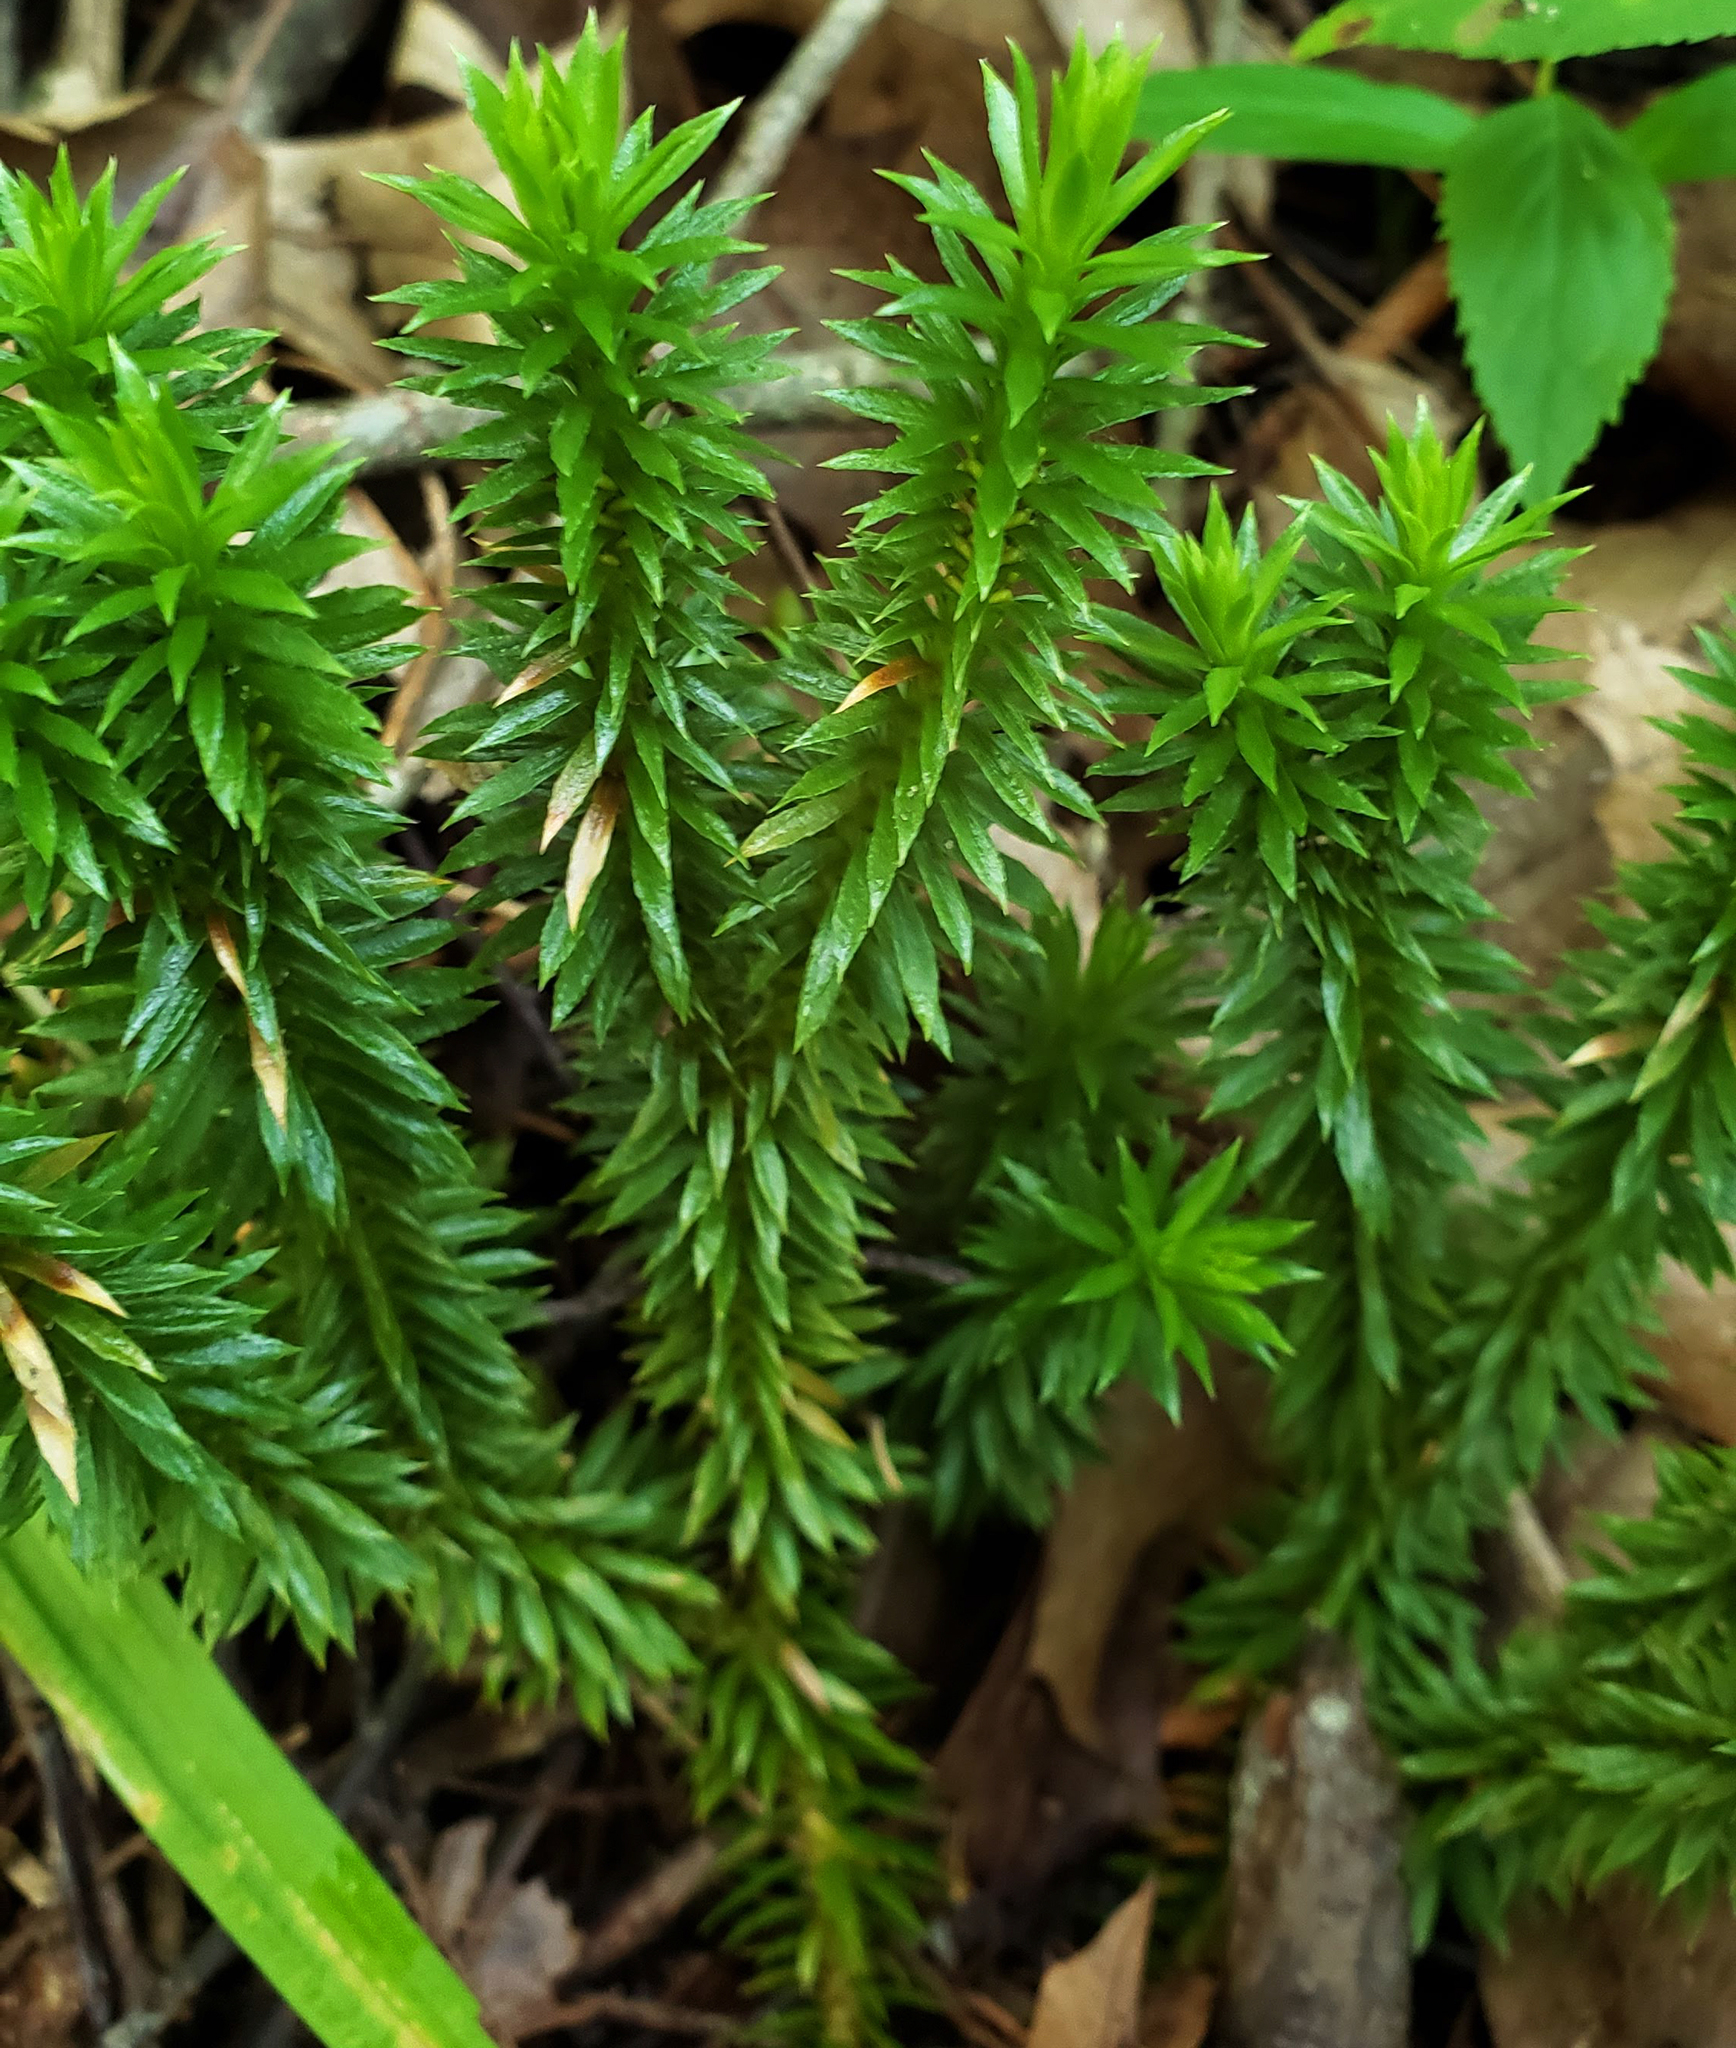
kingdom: Plantae
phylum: Tracheophyta
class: Lycopodiopsida
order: Lycopodiales
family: Lycopodiaceae
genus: Huperzia
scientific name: Huperzia lucidula
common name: Shining clubmoss
